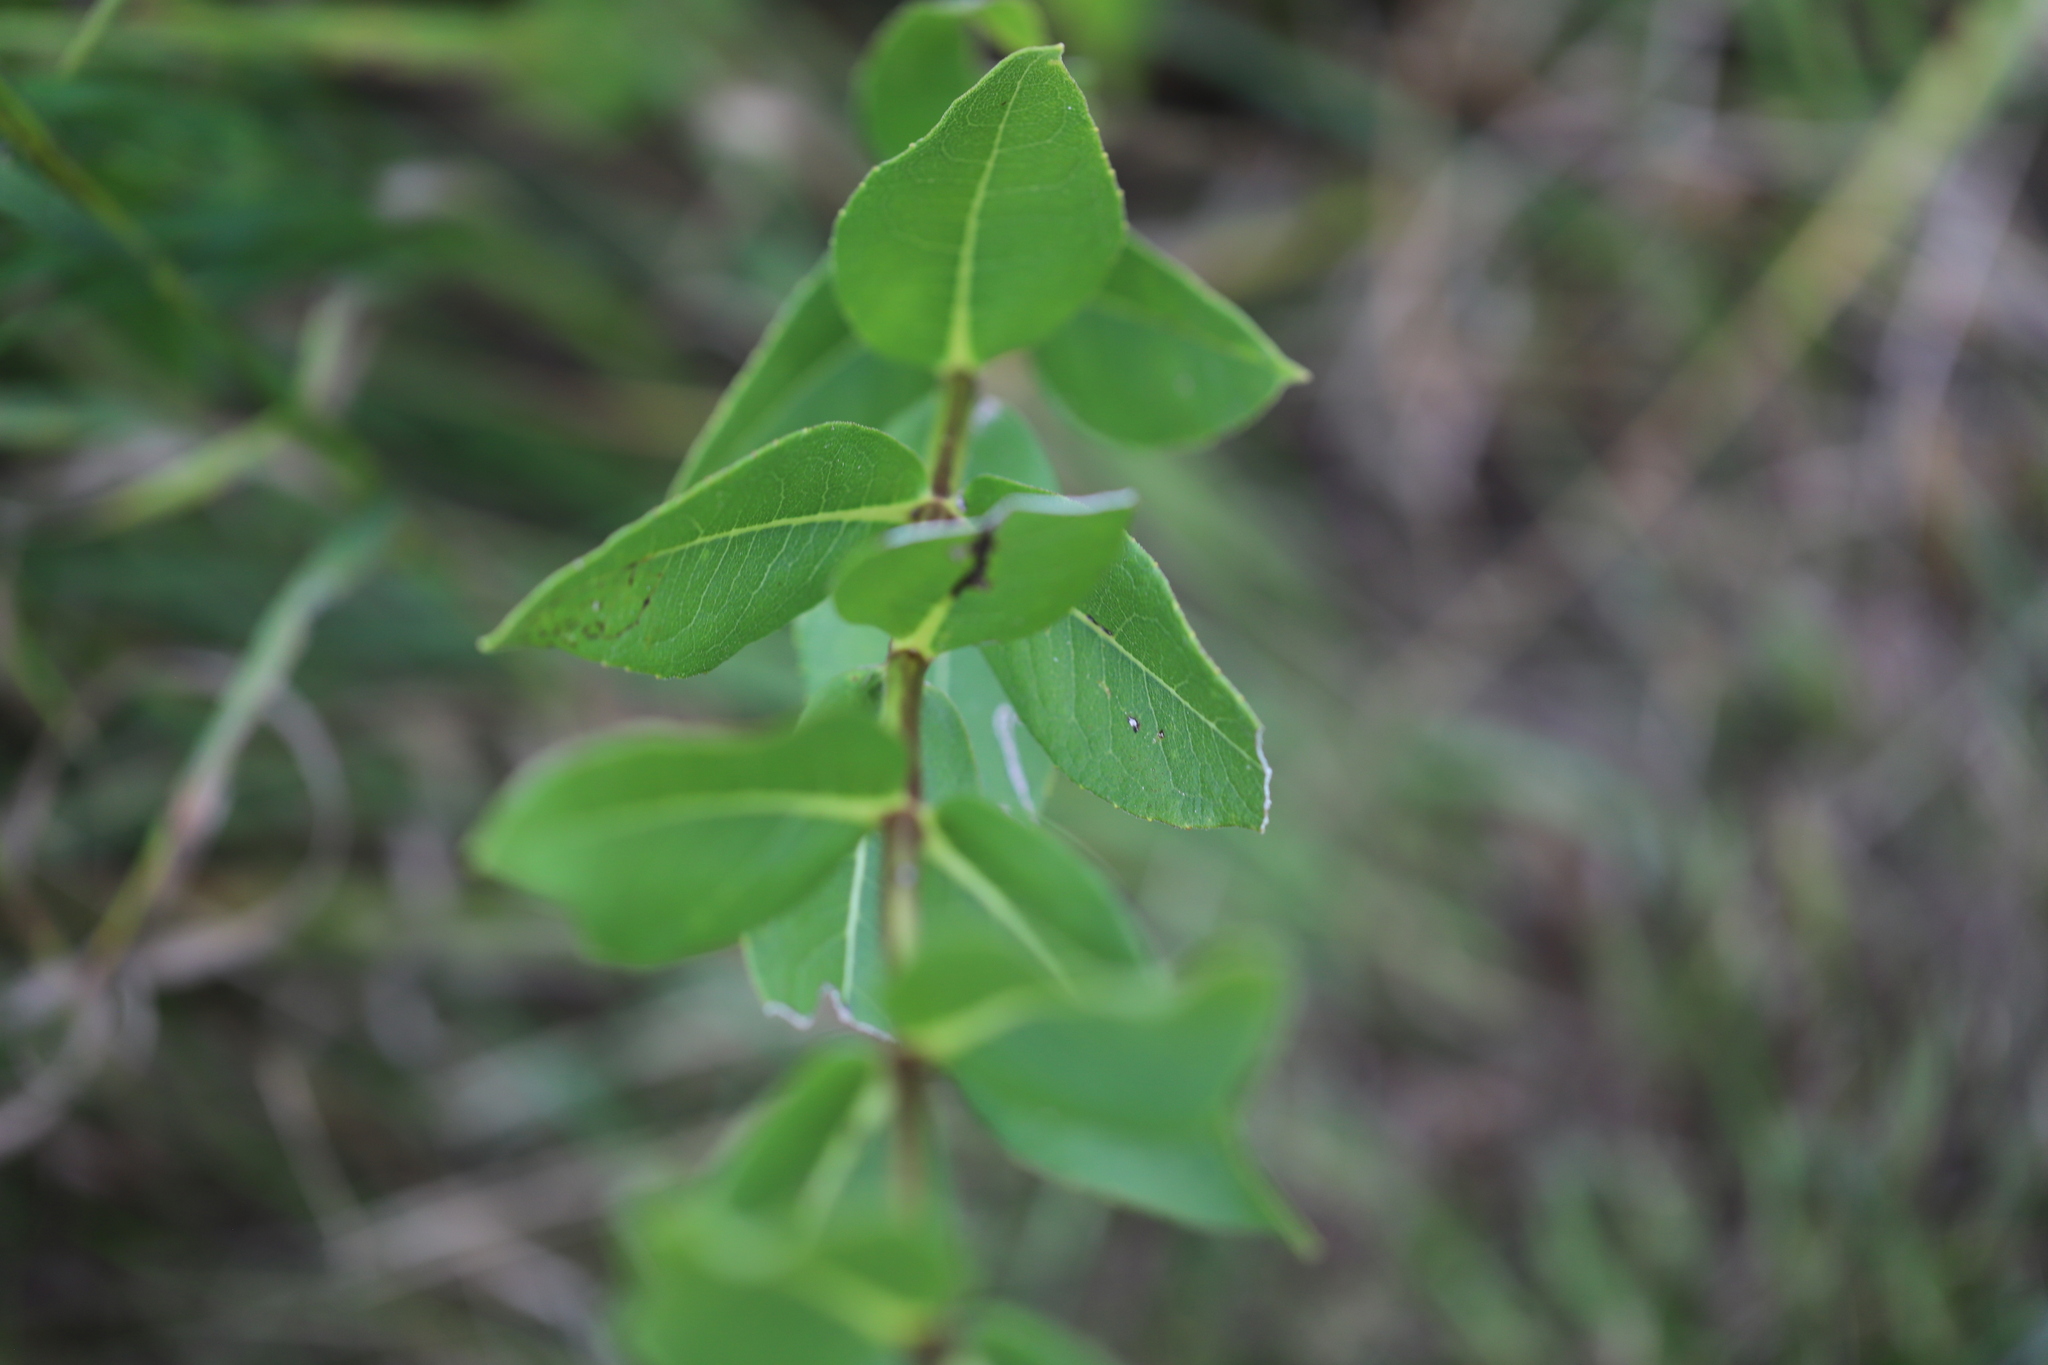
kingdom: Plantae
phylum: Tracheophyta
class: Magnoliopsida
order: Asterales
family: Asteraceae
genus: Silphium
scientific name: Silphium integrifolium
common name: Whole-leaf rosinweed
